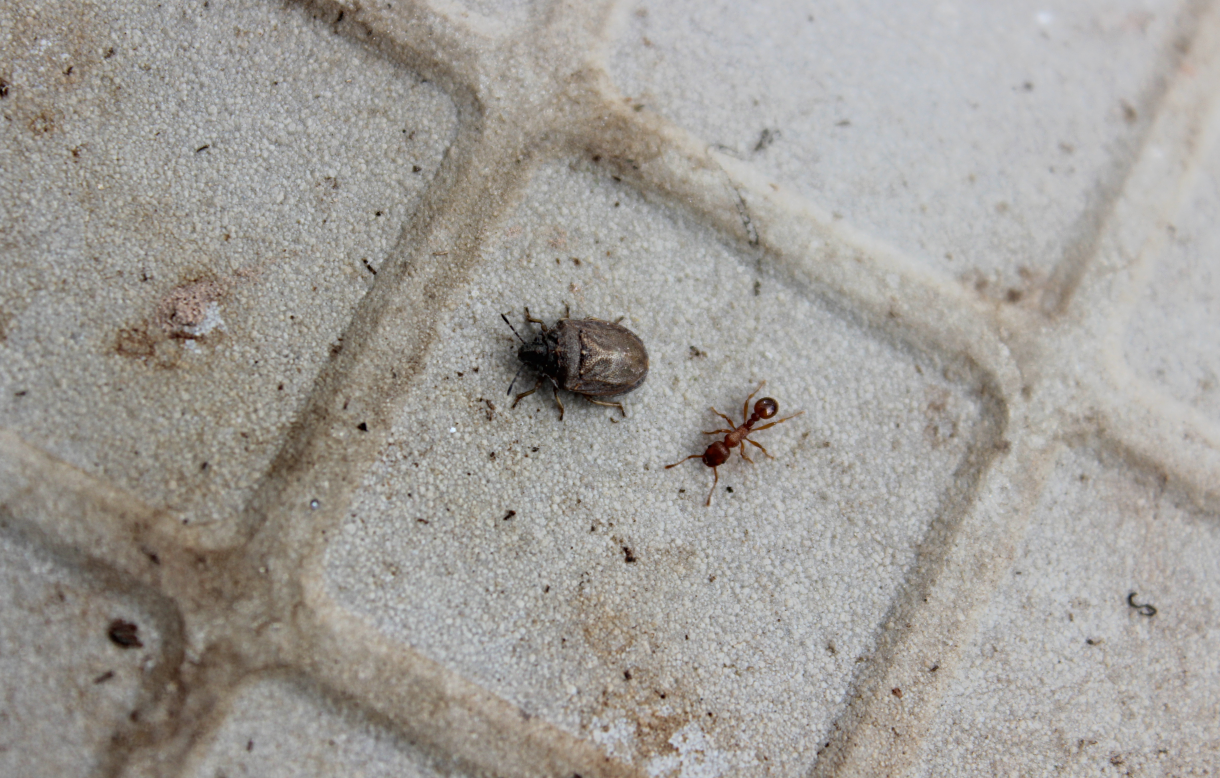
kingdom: Animalia
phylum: Arthropoda
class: Insecta
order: Hemiptera
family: Pentatomidae
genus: Podops
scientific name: Podops inunctus
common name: Turtle bug
